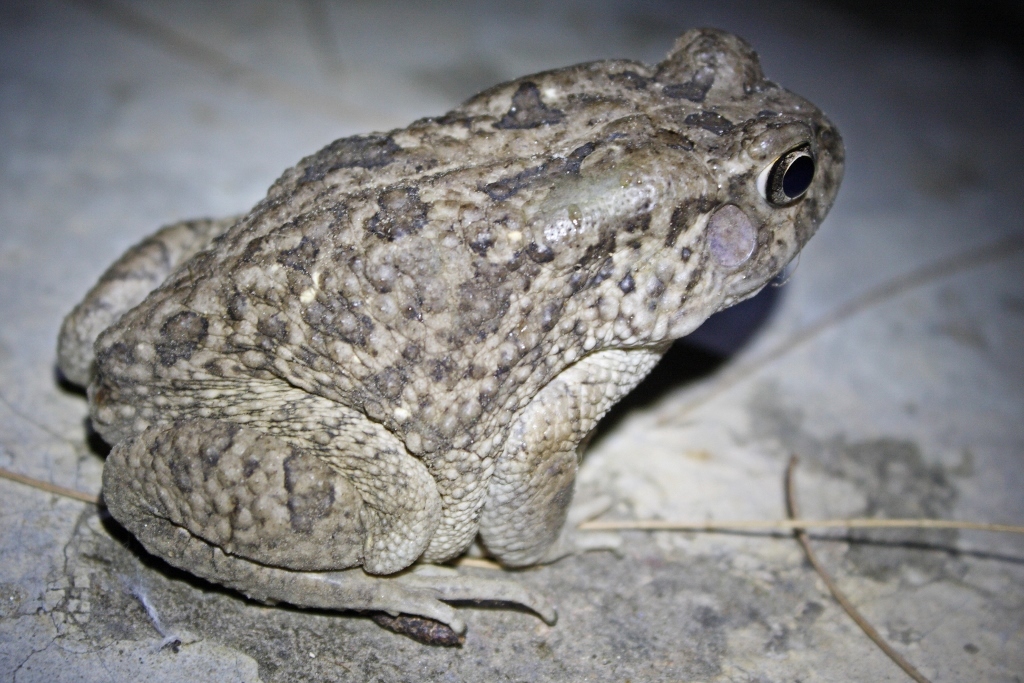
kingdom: Animalia
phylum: Chordata
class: Amphibia
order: Anura
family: Bufonidae
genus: Sclerophrys
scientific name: Sclerophrys regularis
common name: African common toad
